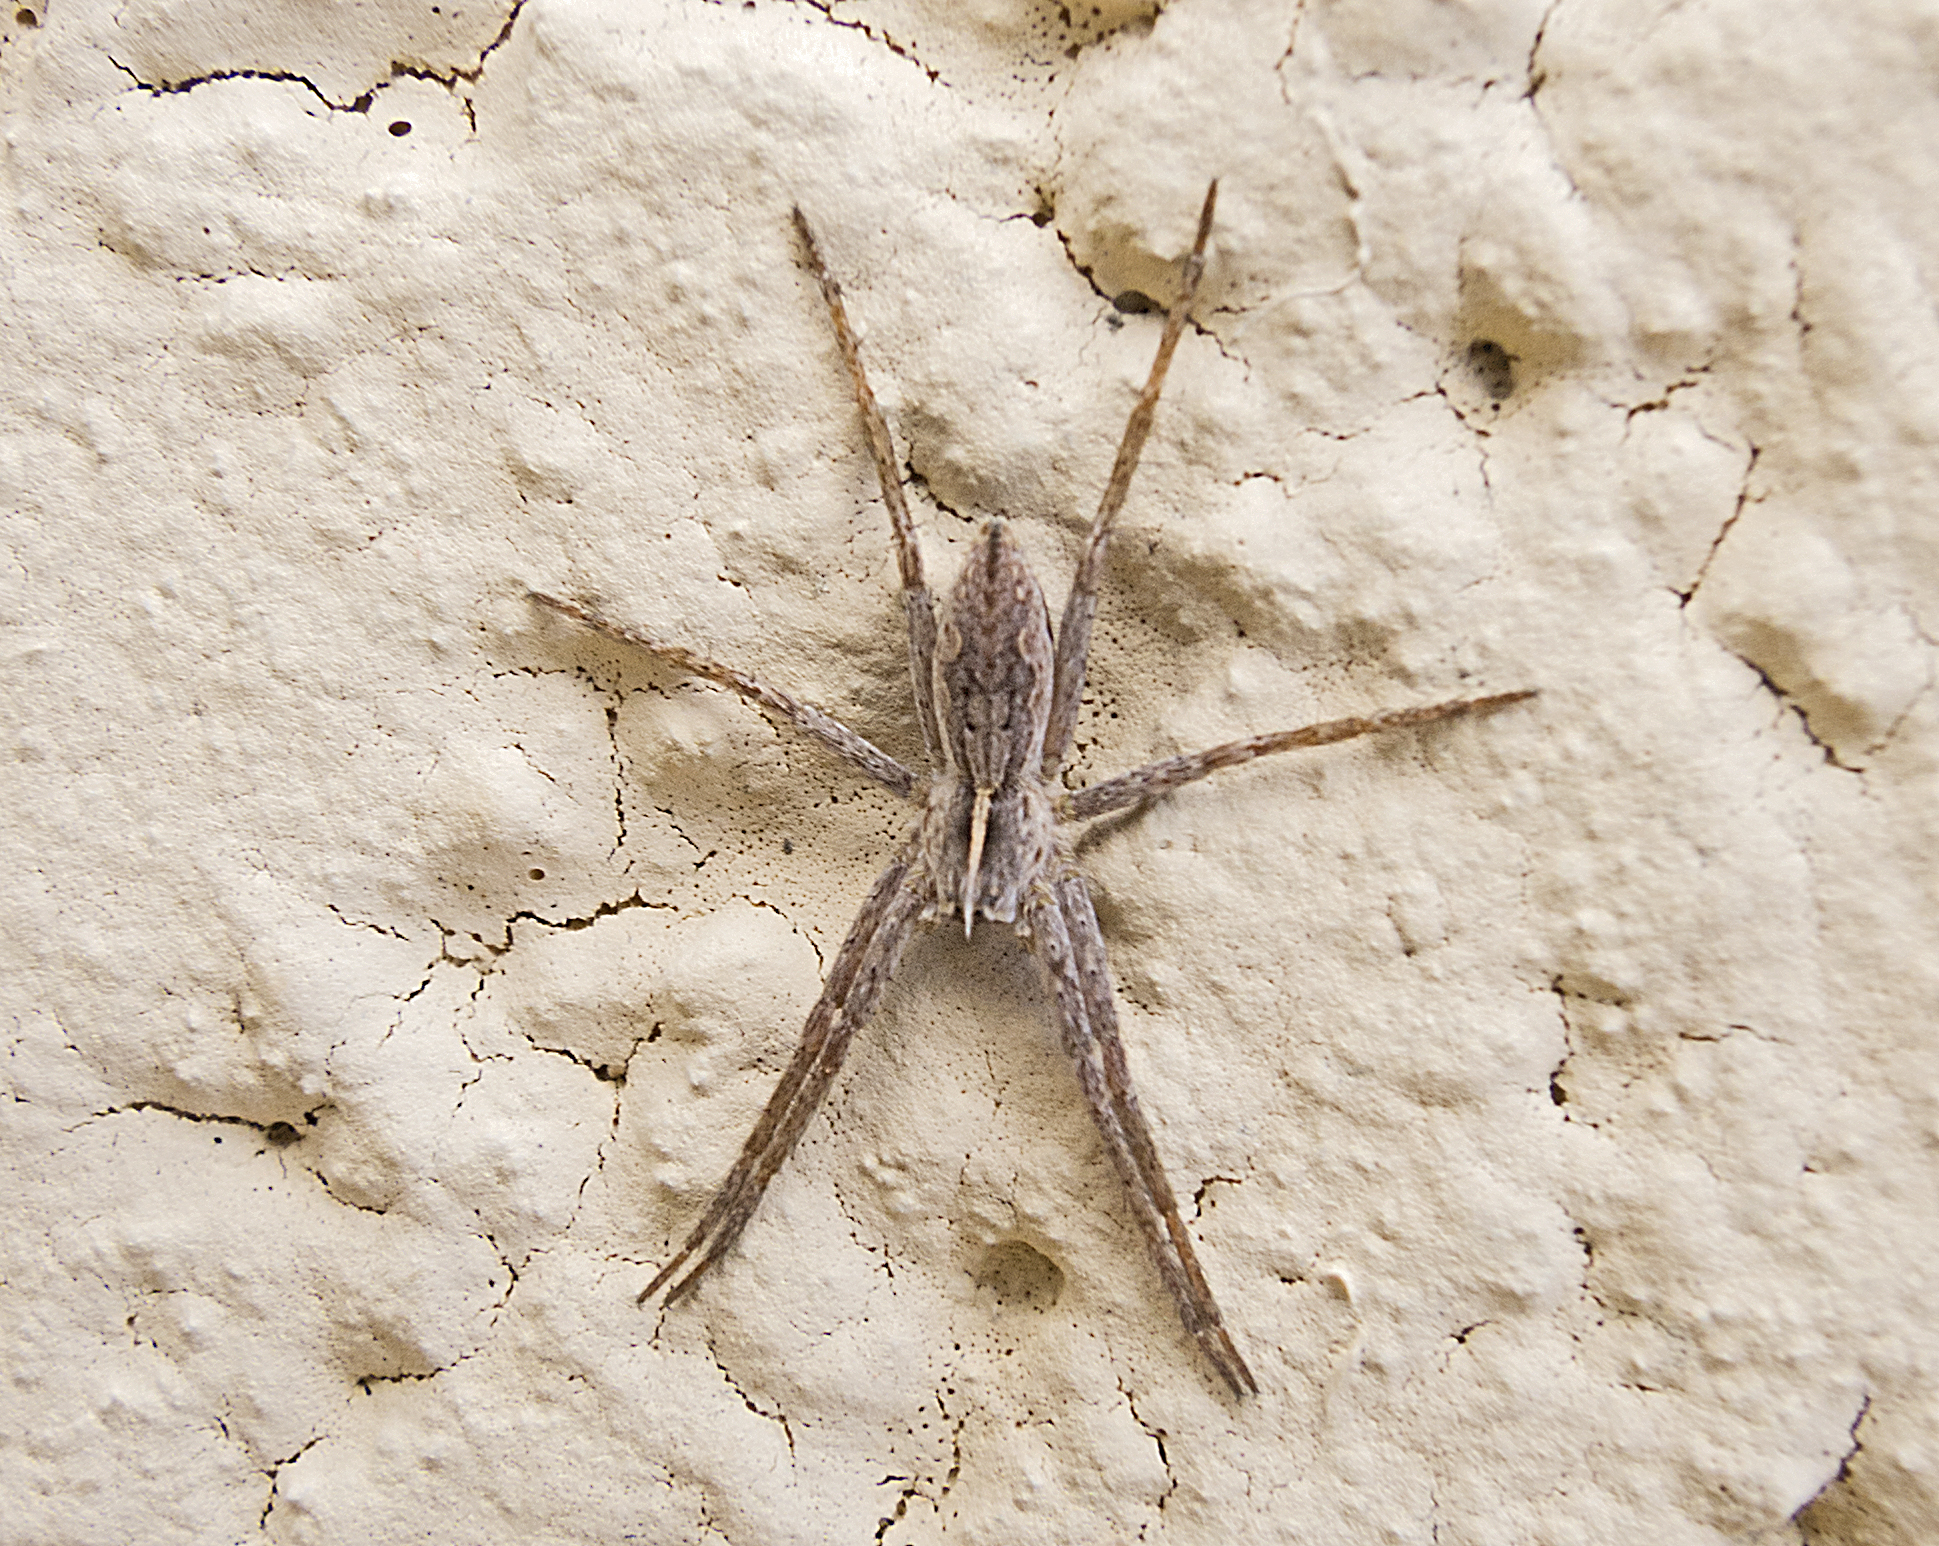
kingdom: Animalia
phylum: Arthropoda
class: Arachnida
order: Araneae
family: Pisauridae
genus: Pisaura
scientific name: Pisaura
